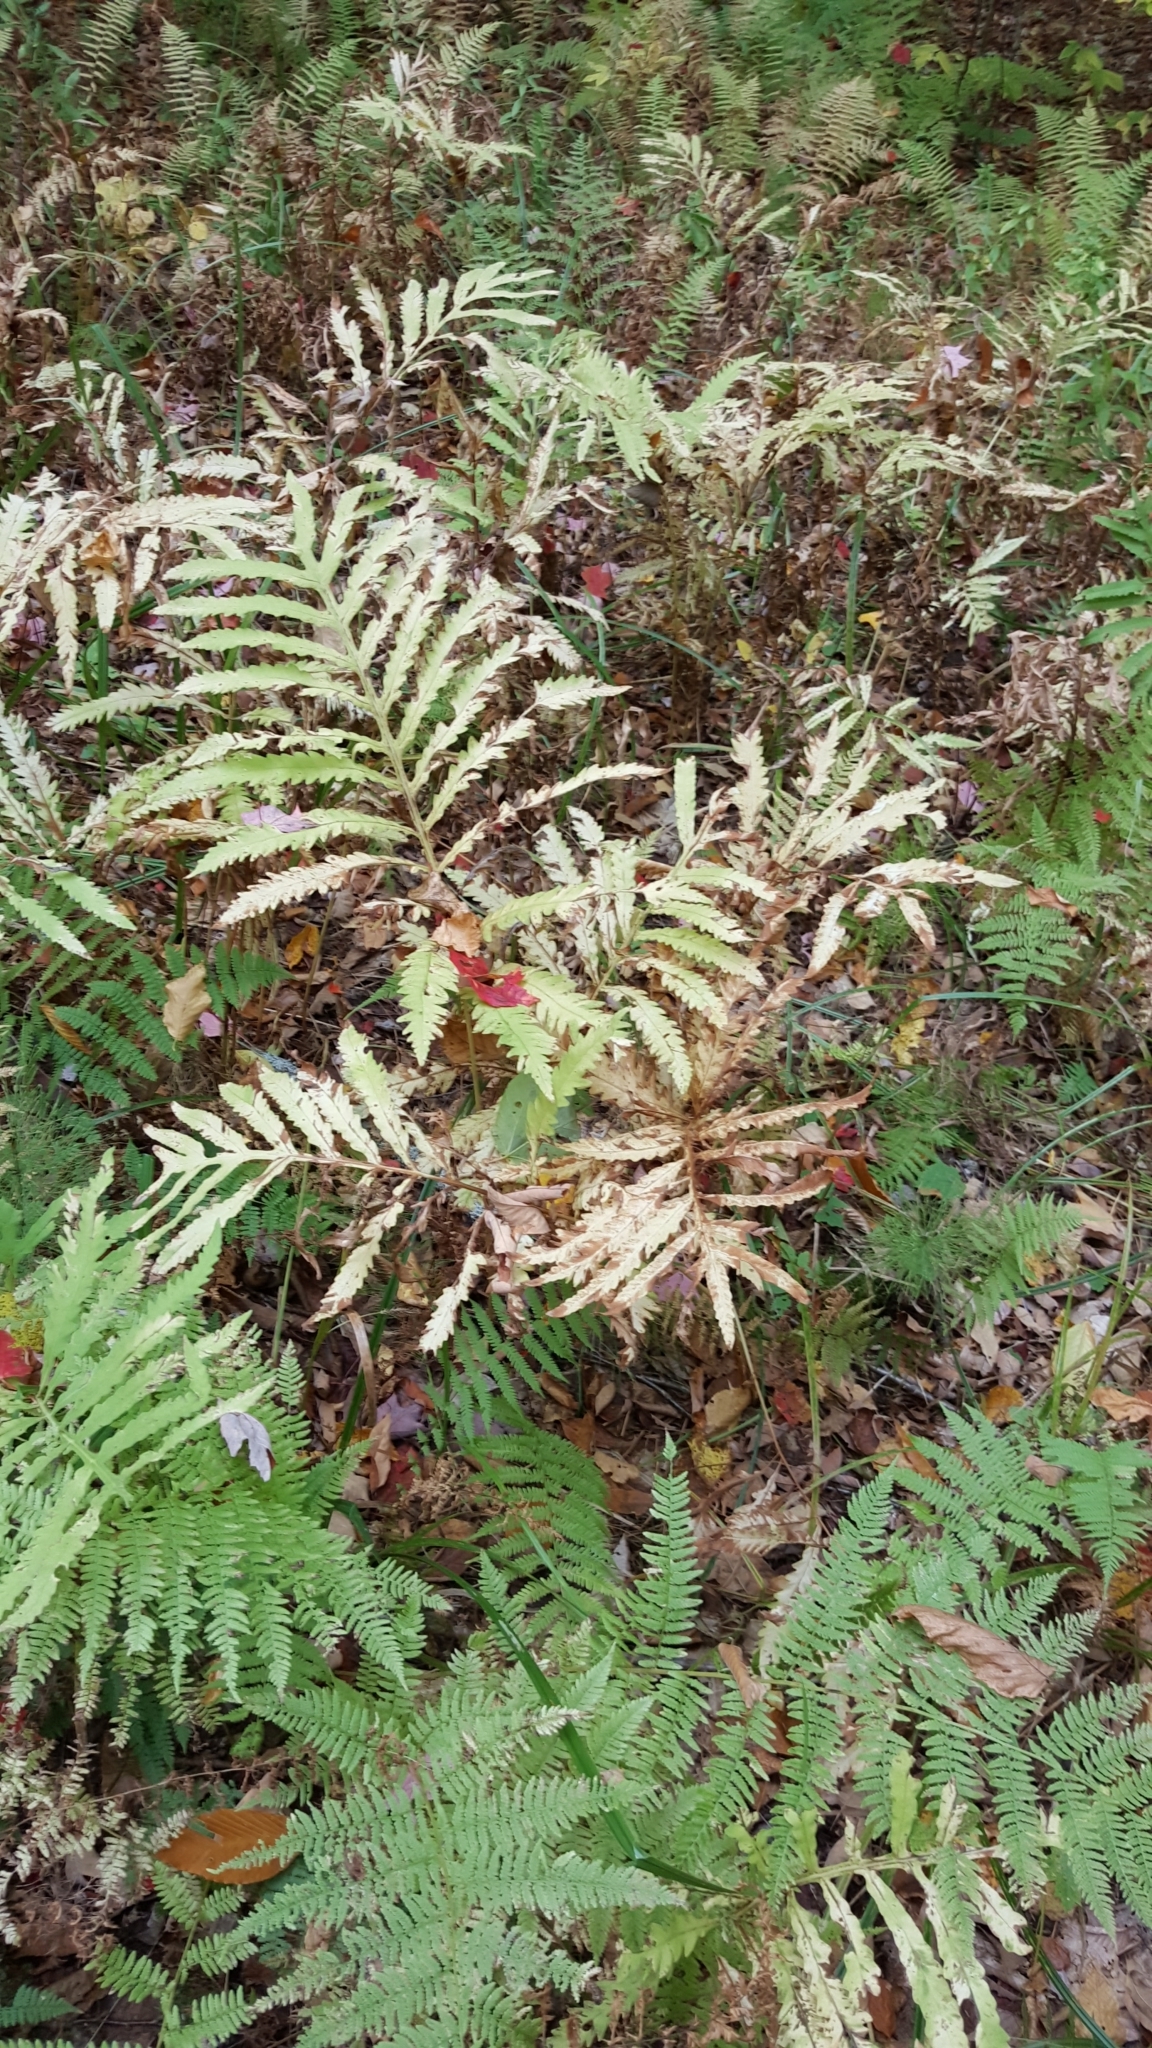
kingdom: Plantae
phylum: Tracheophyta
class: Polypodiopsida
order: Polypodiales
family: Onocleaceae
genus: Onoclea
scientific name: Onoclea sensibilis
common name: Sensitive fern
